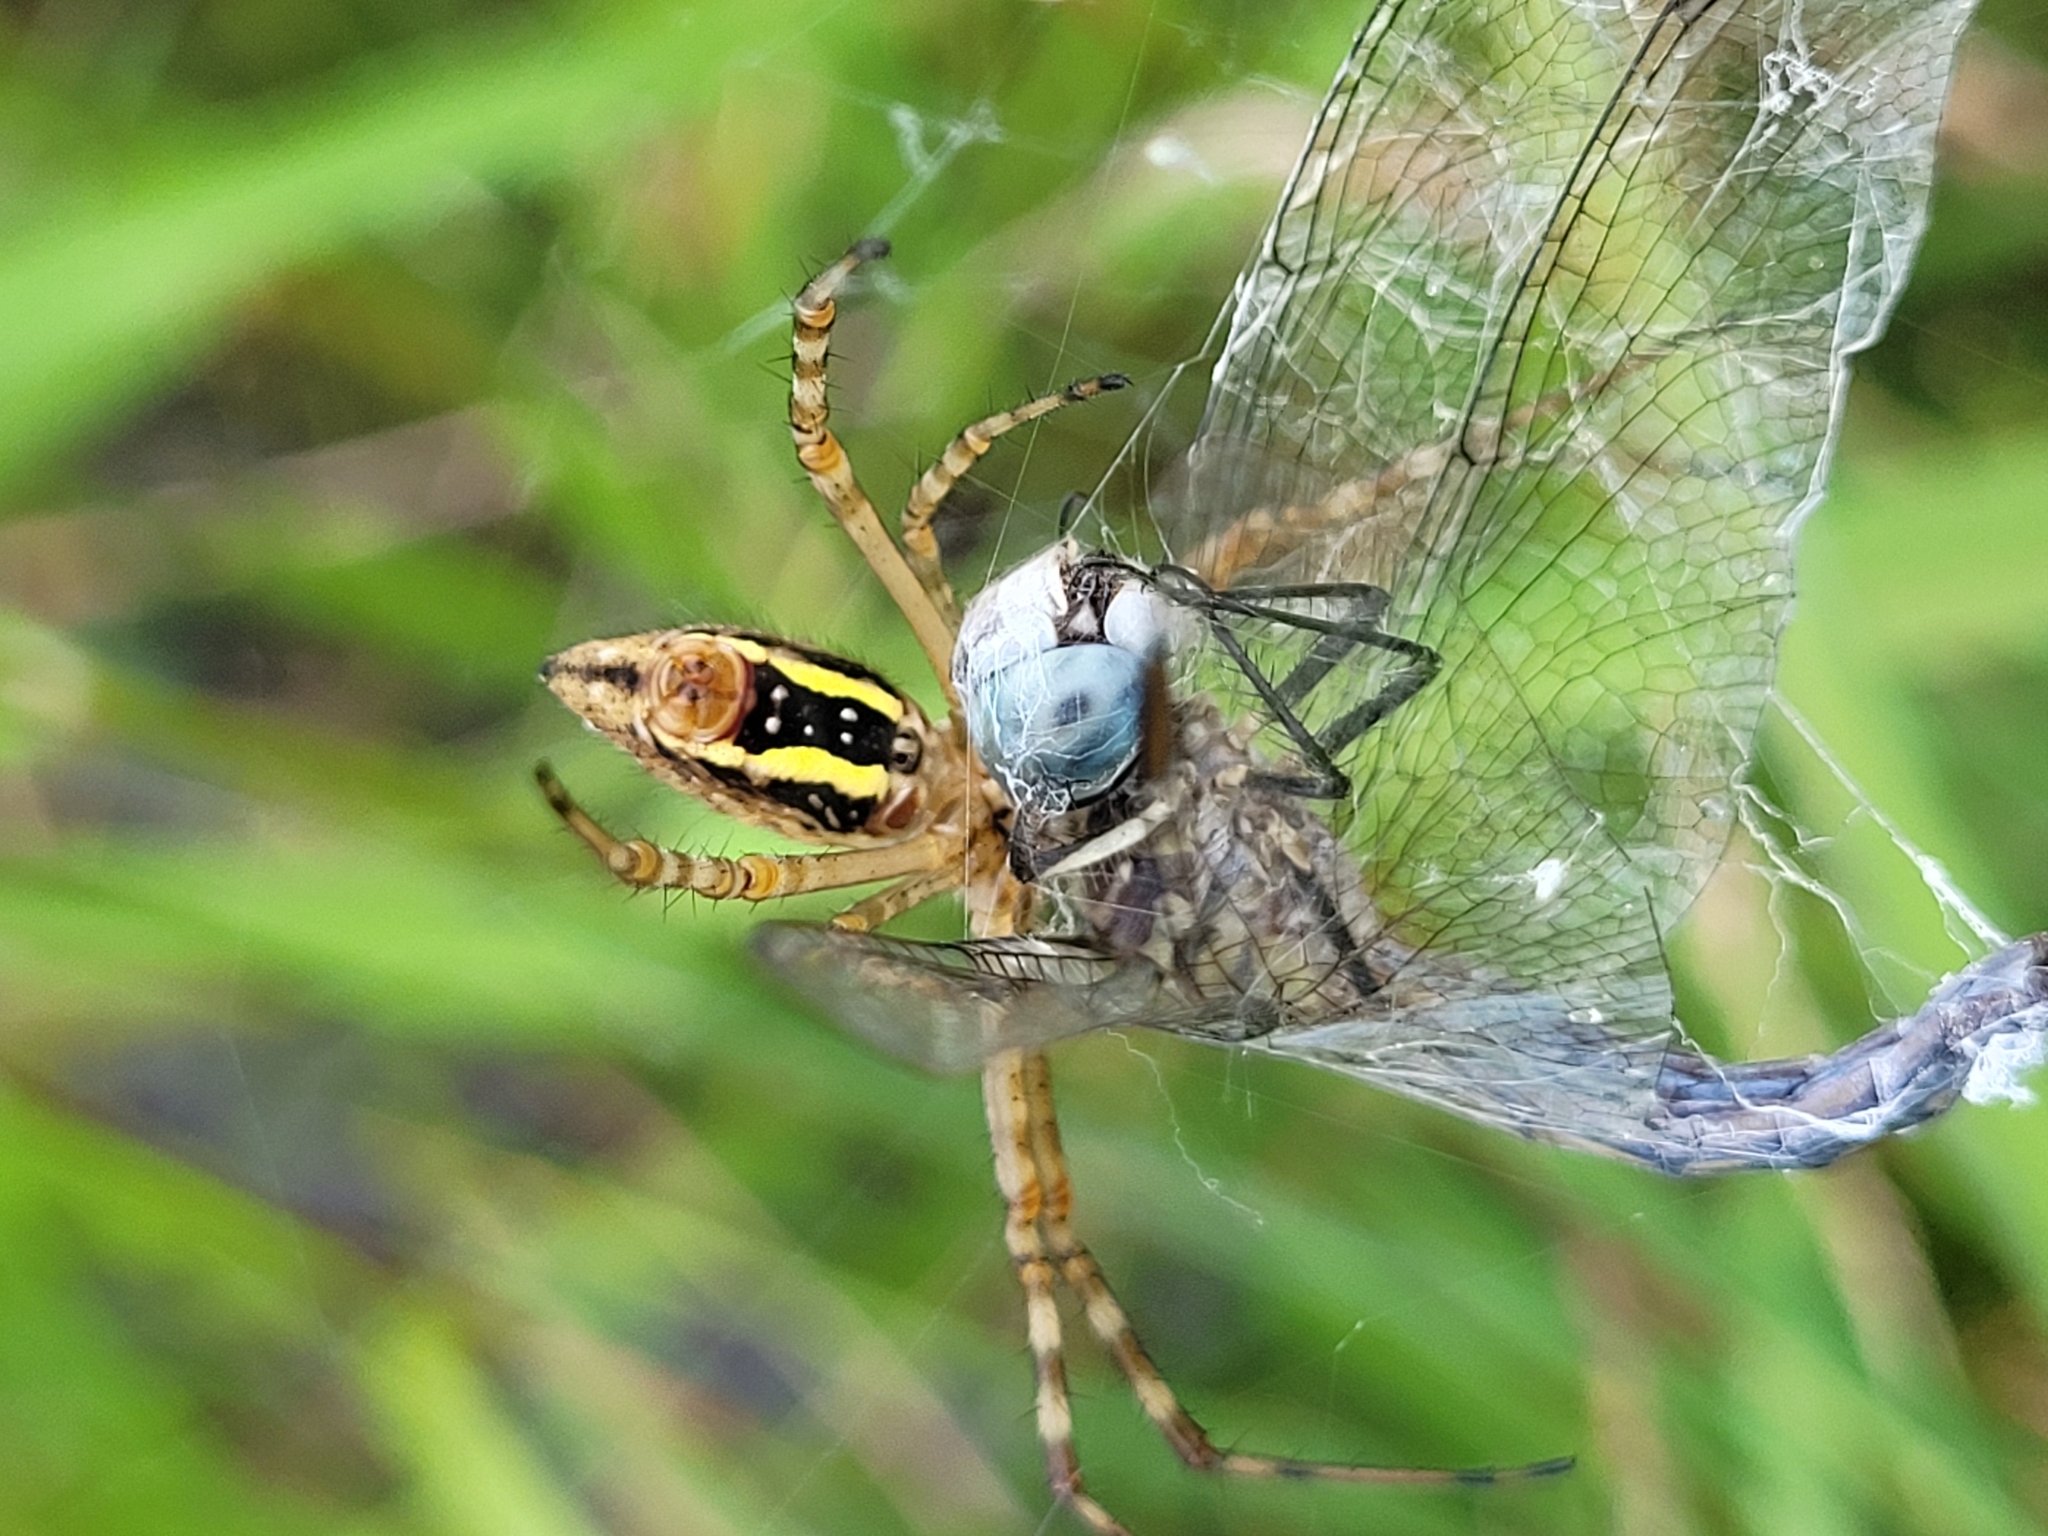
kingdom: Animalia
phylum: Arthropoda
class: Arachnida
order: Araneae
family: Araneidae
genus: Argiope
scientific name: Argiope trifasciata
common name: Banded garden spider
